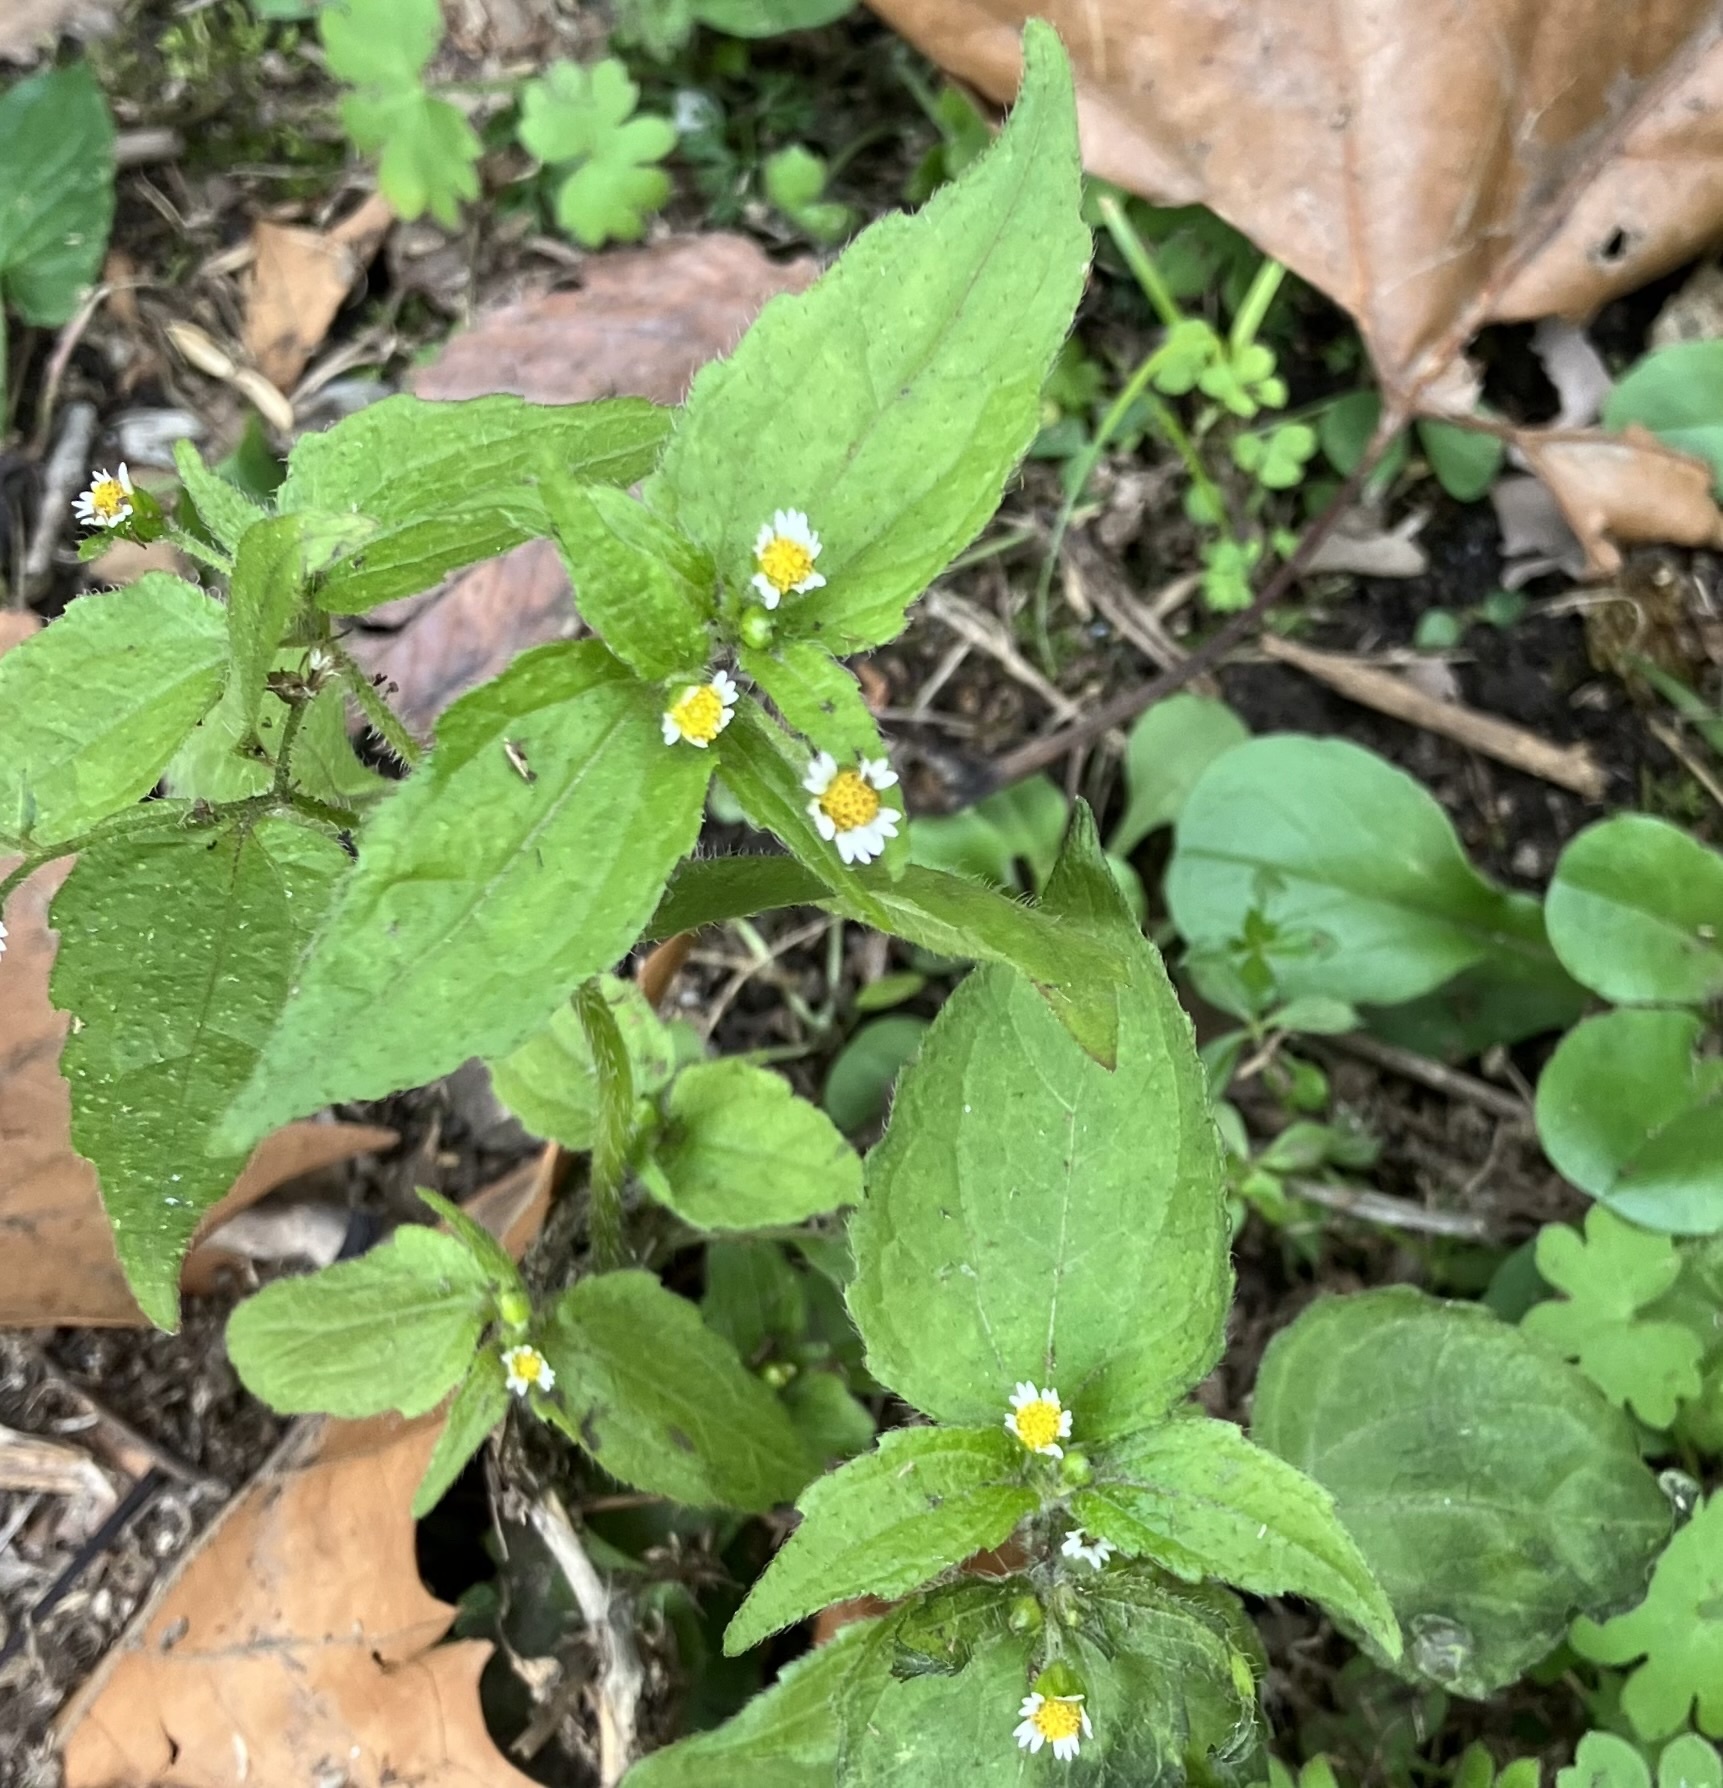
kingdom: Plantae
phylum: Tracheophyta
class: Magnoliopsida
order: Asterales
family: Asteraceae
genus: Galinsoga
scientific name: Galinsoga quadriradiata
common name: Shaggy soldier
